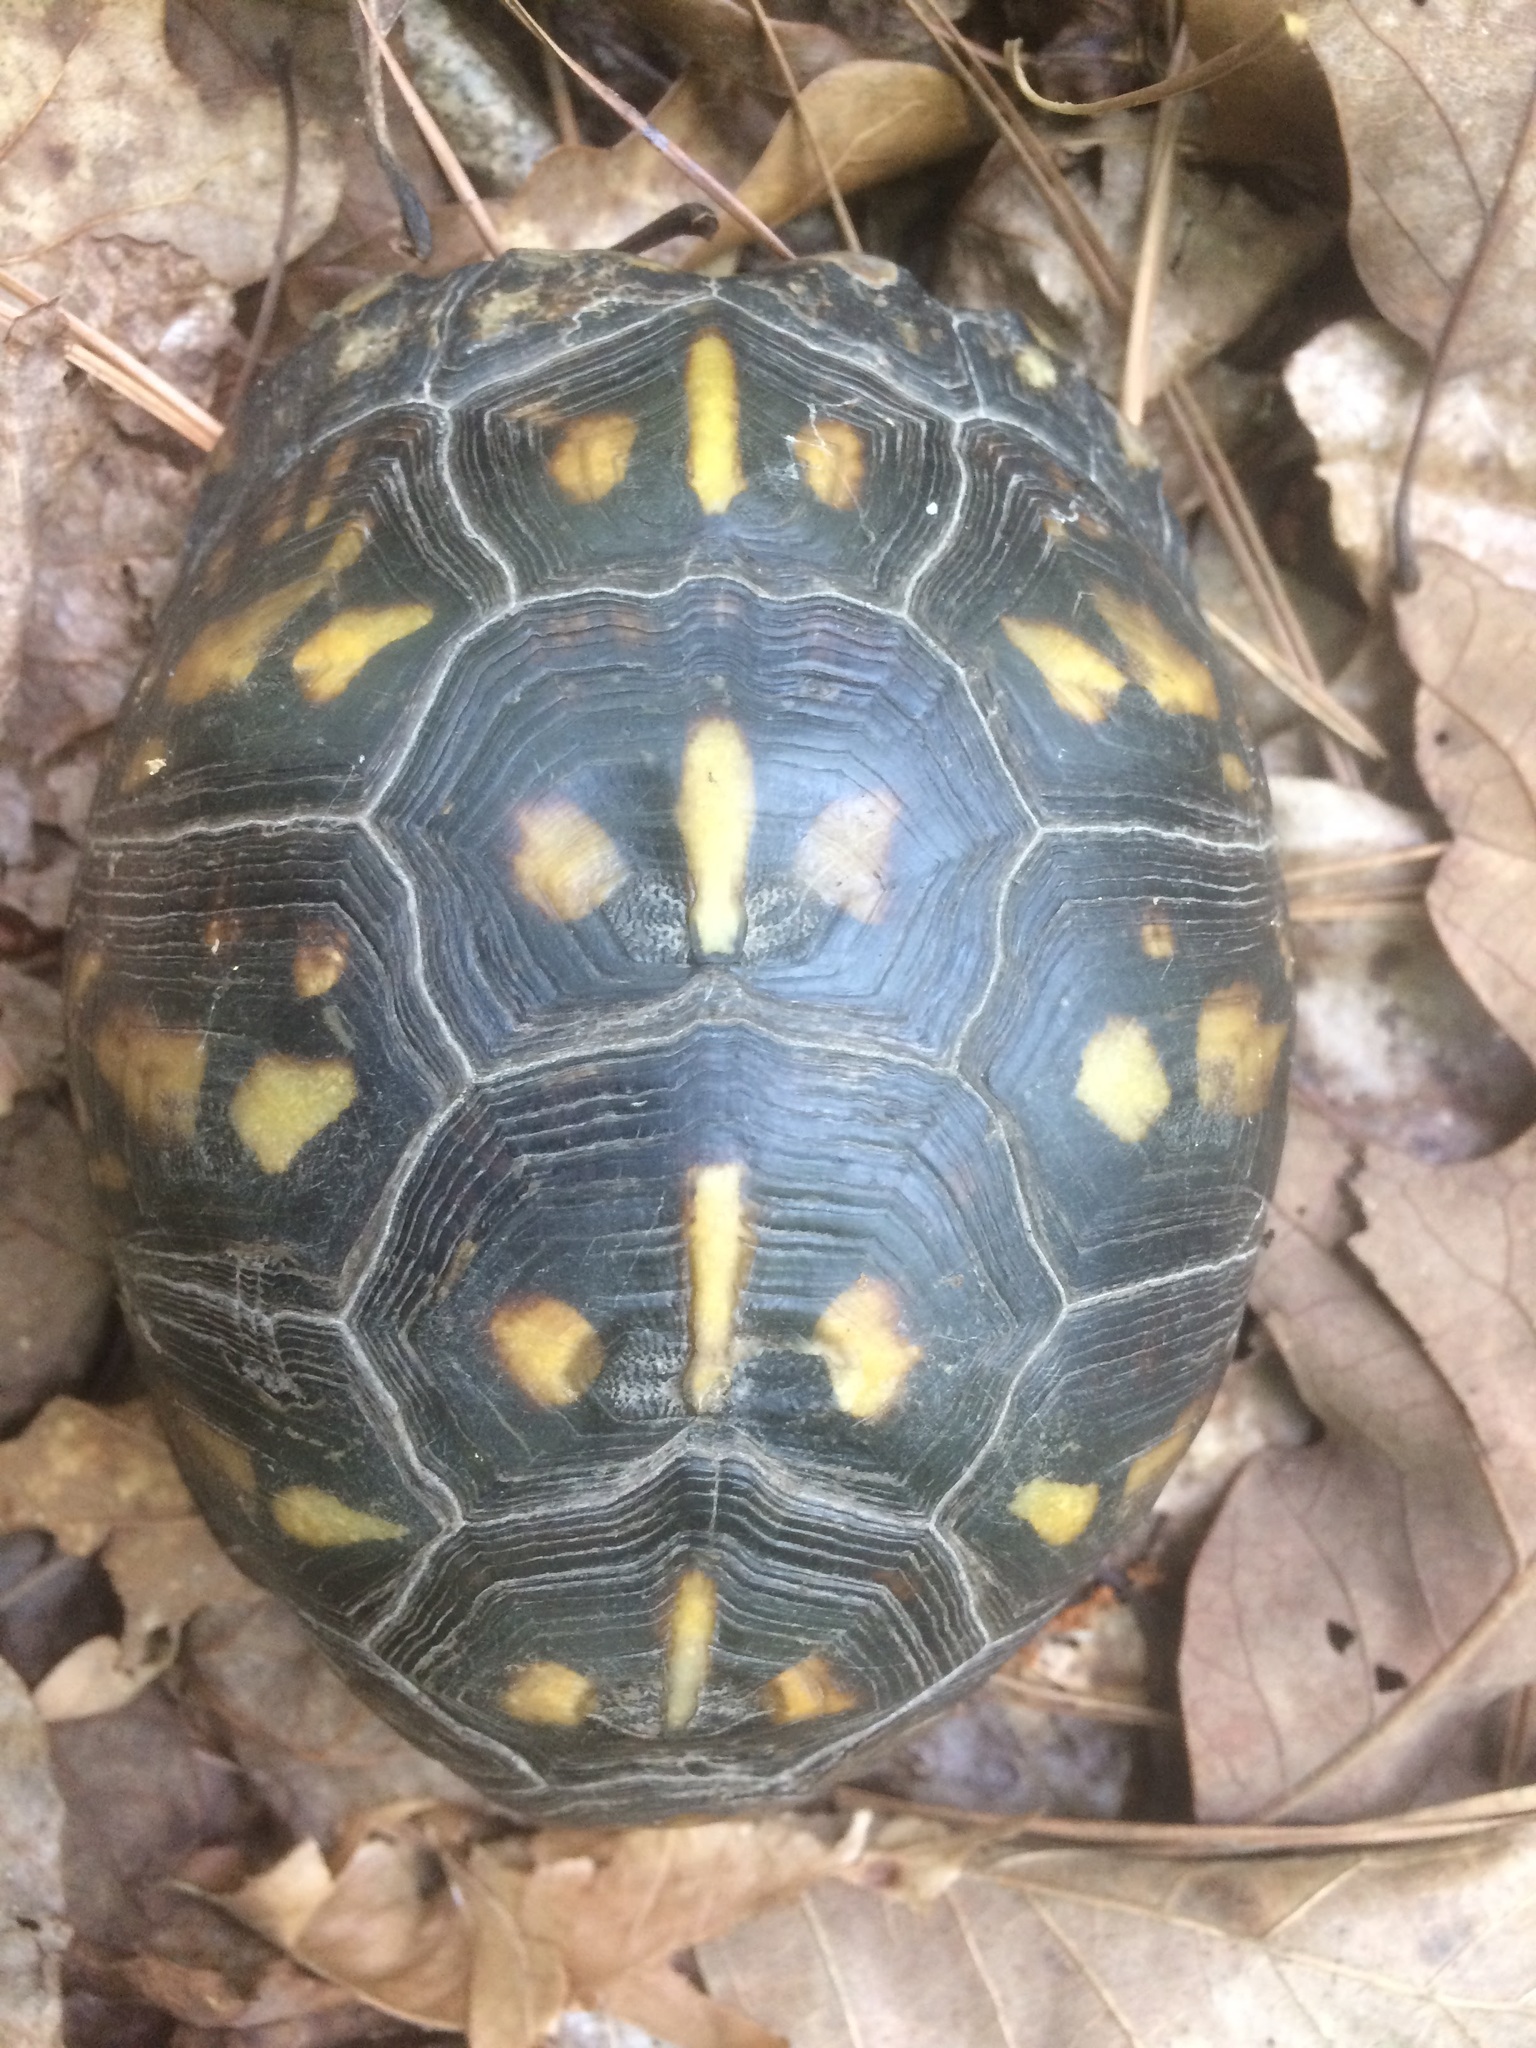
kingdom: Animalia
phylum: Chordata
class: Testudines
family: Emydidae
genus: Terrapene
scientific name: Terrapene carolina
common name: Common box turtle
